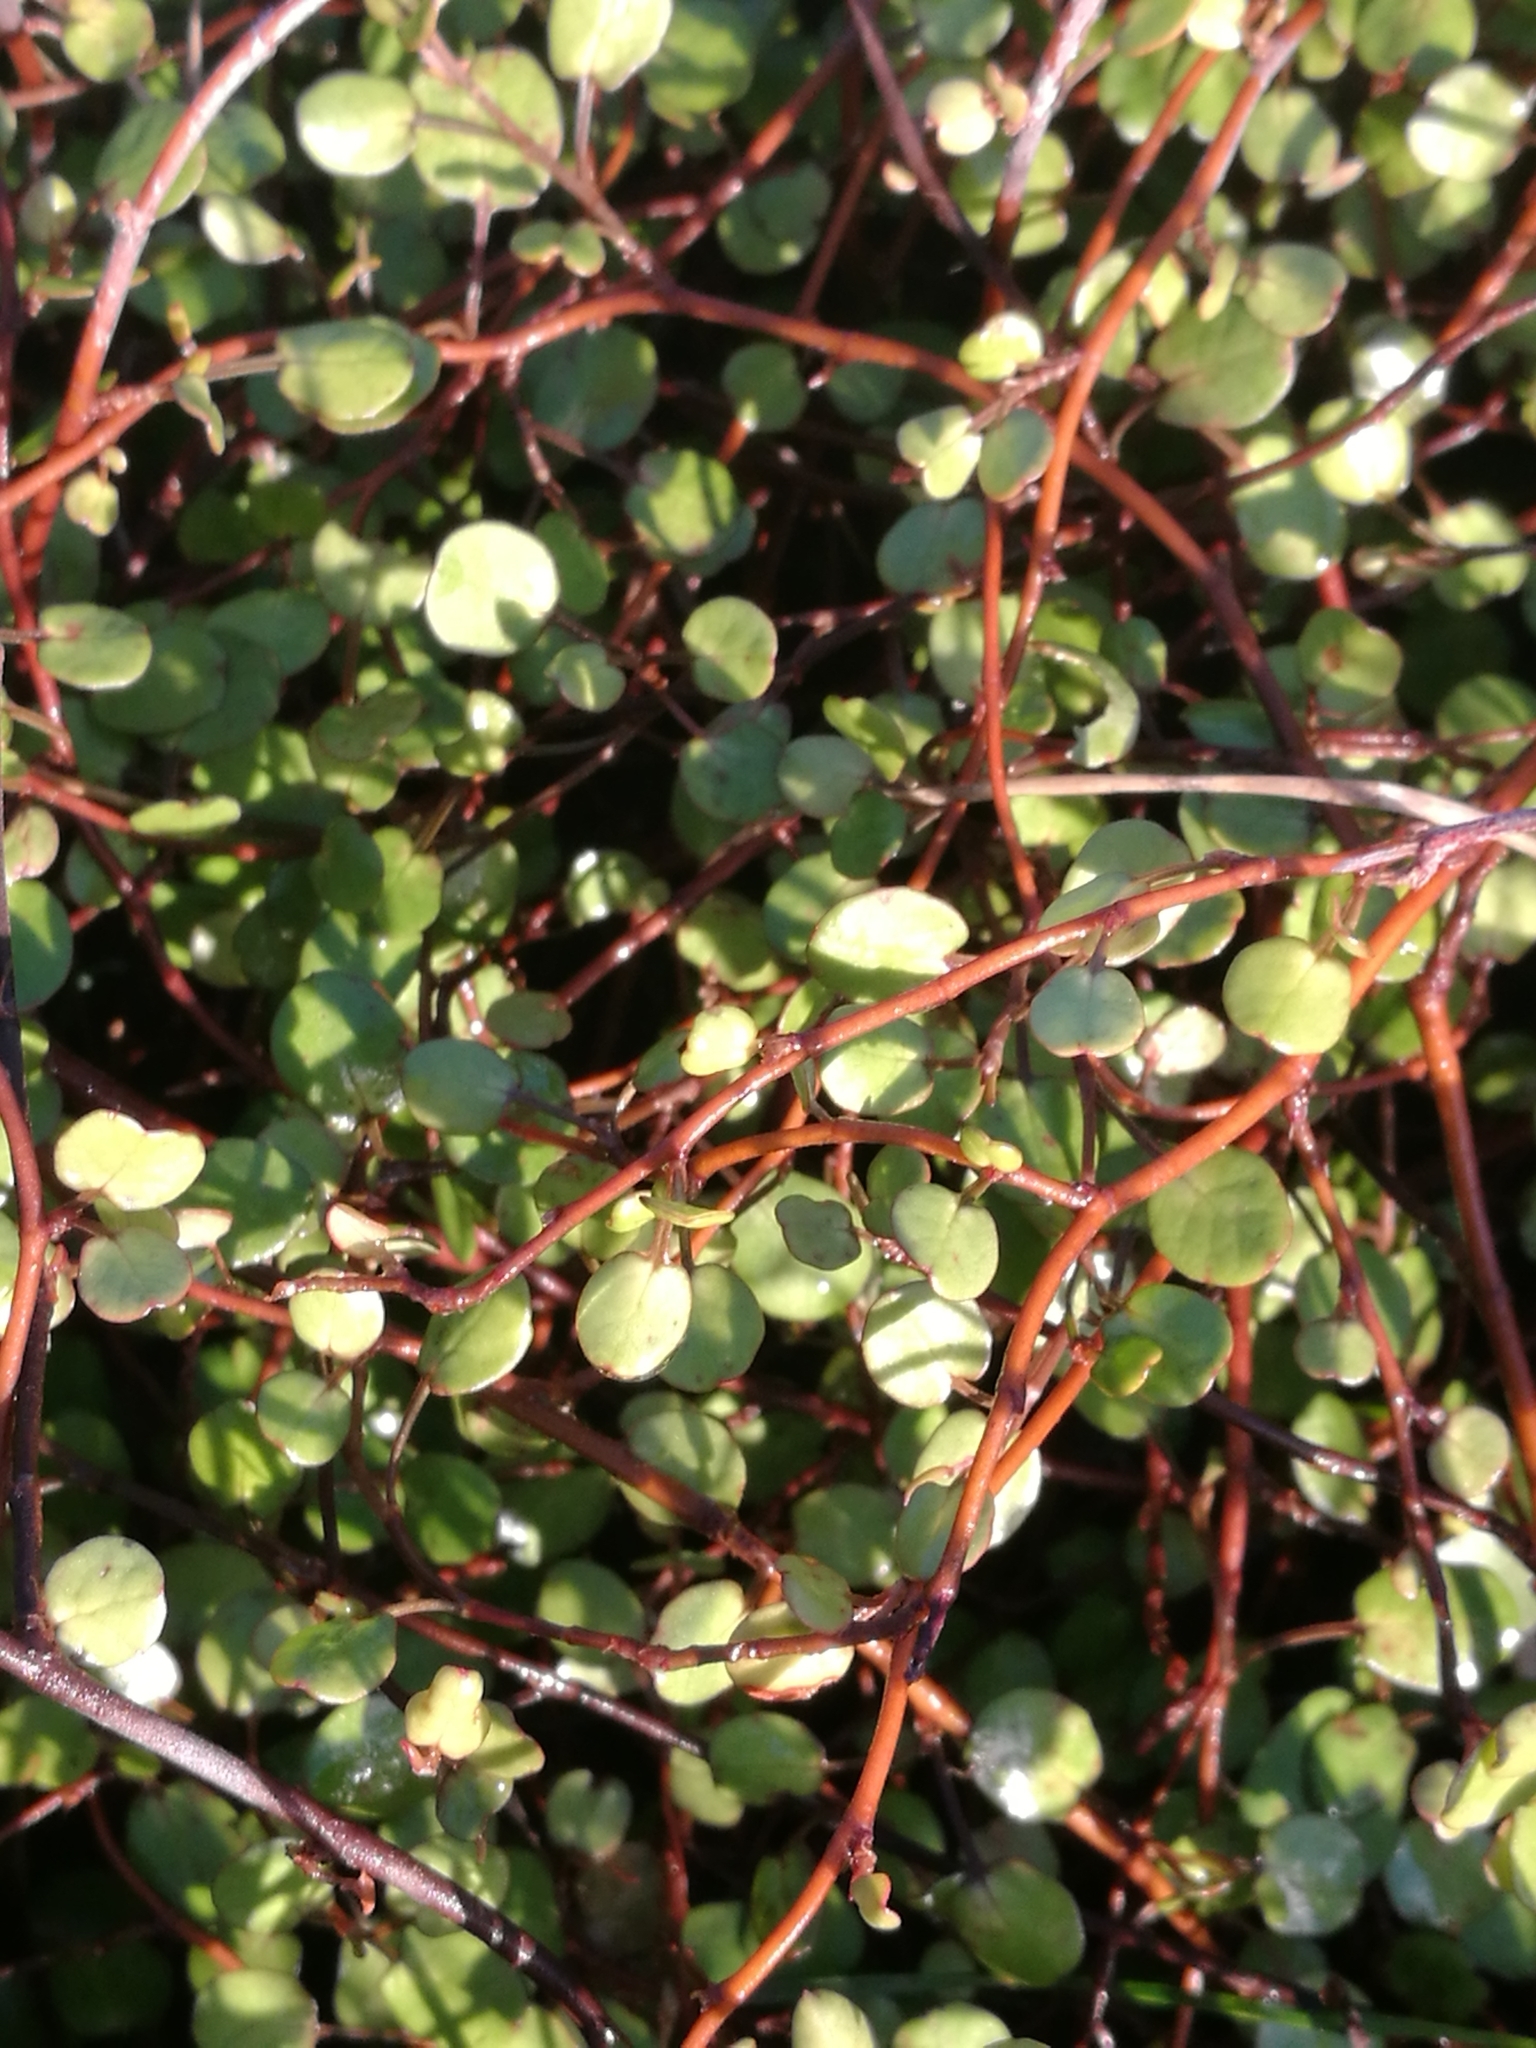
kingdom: Plantae
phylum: Tracheophyta
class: Magnoliopsida
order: Caryophyllales
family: Polygonaceae
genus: Muehlenbeckia
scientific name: Muehlenbeckia complexa
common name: Wireplant
